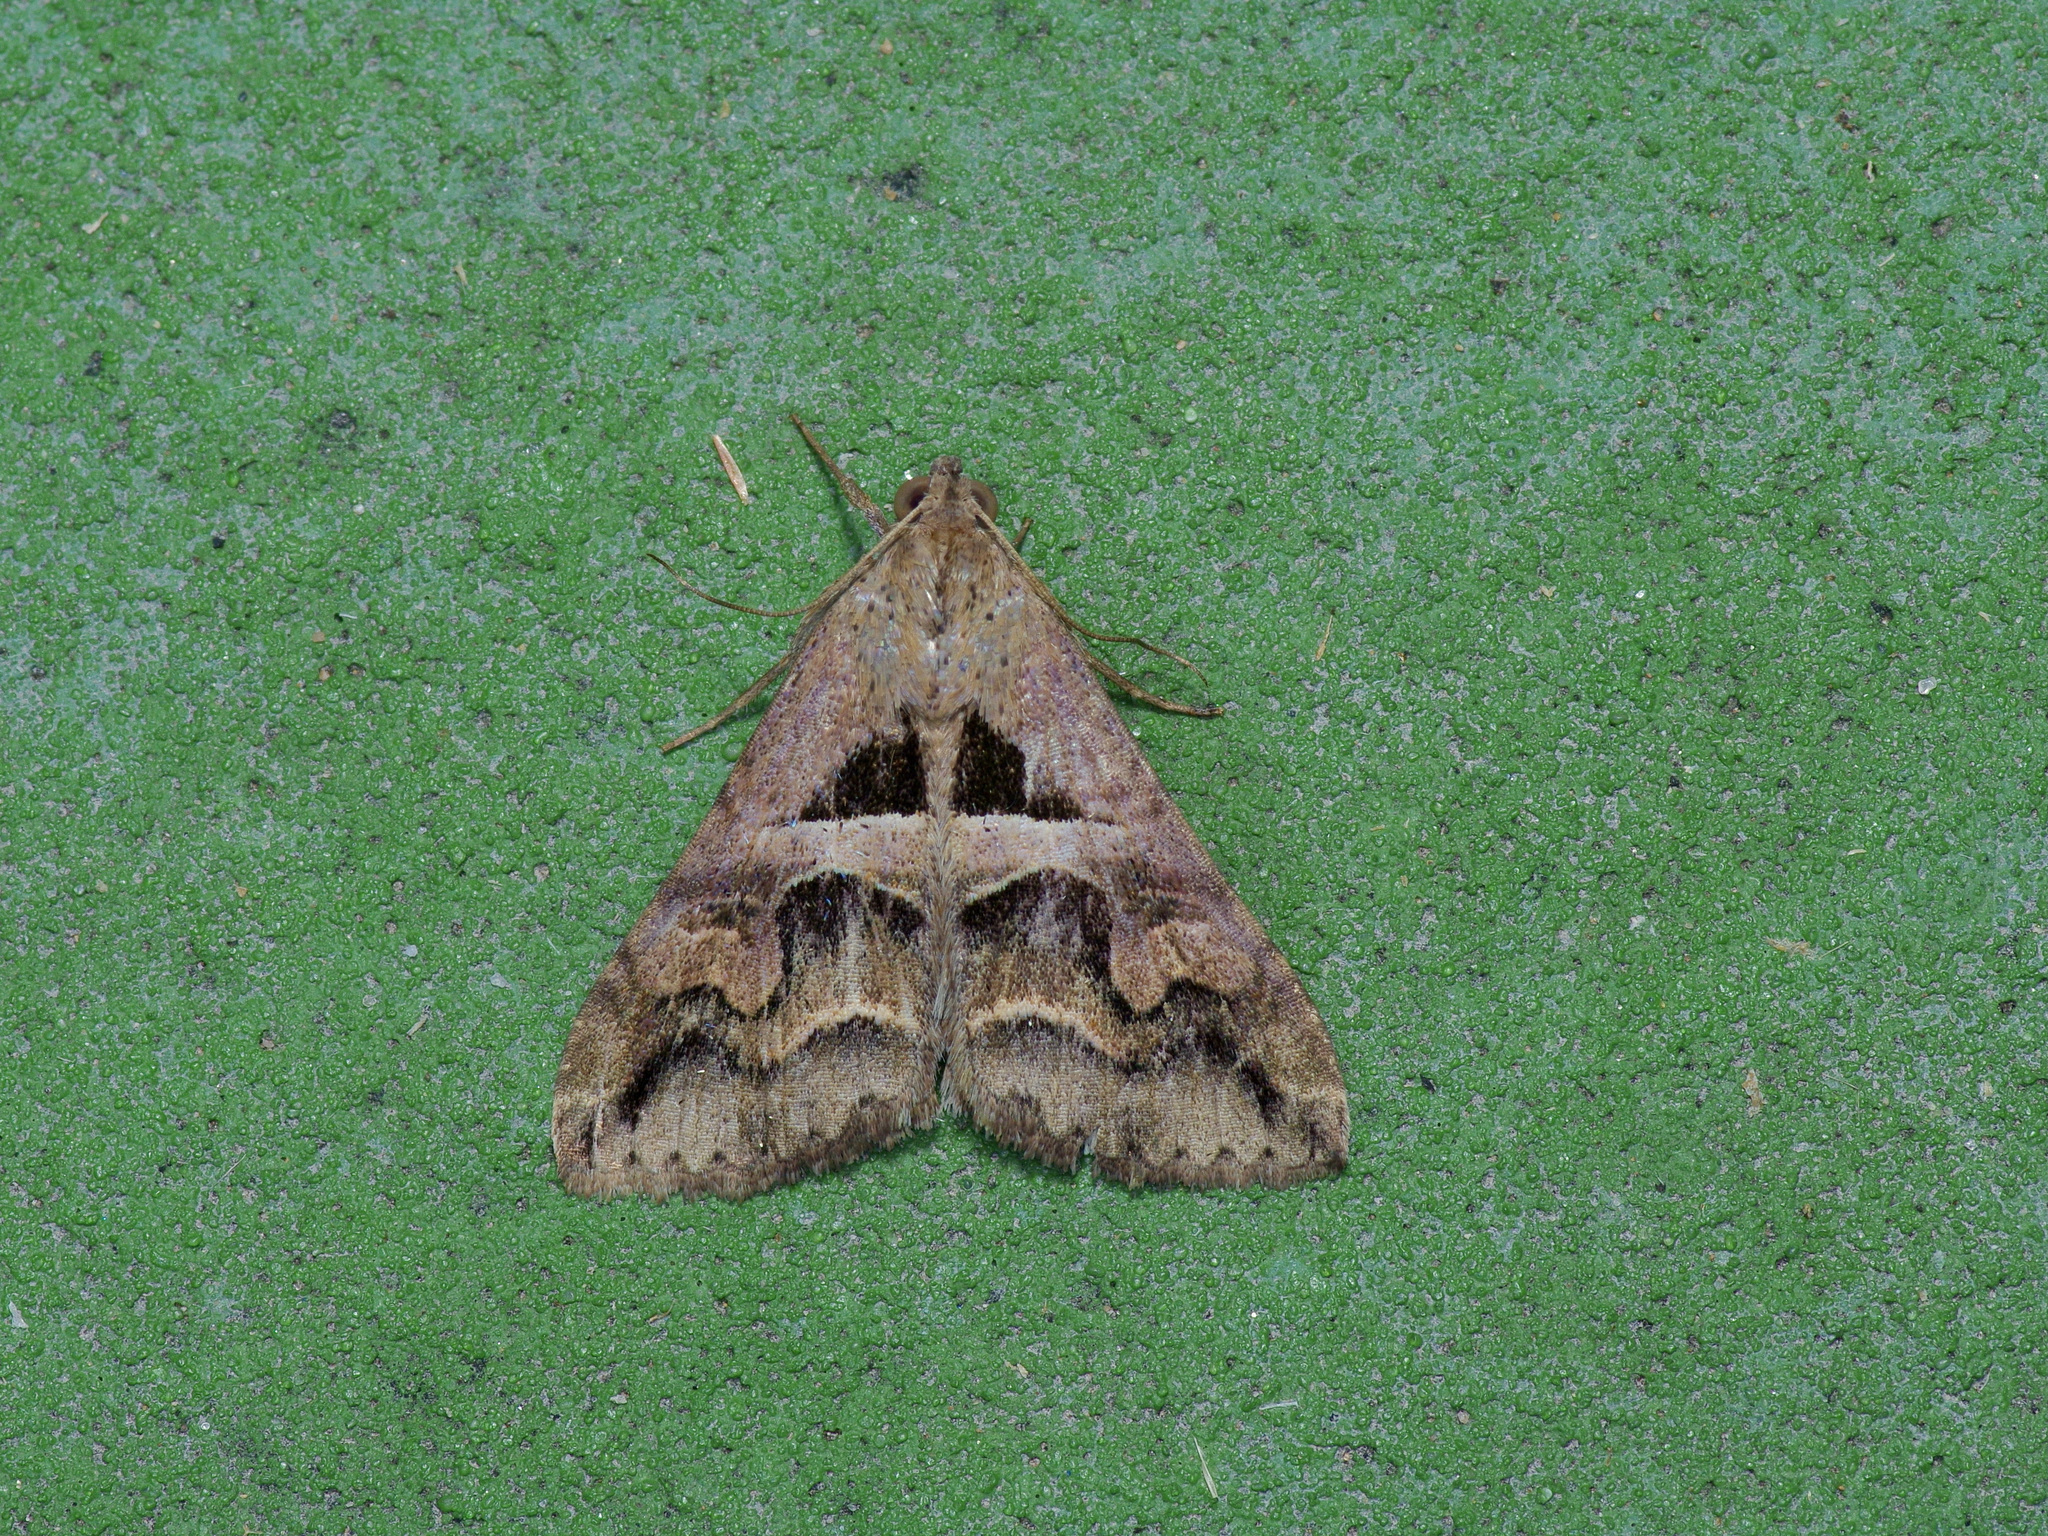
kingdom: Animalia
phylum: Arthropoda
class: Insecta
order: Lepidoptera
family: Erebidae
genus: Melipotis
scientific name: Melipotis cellaris
